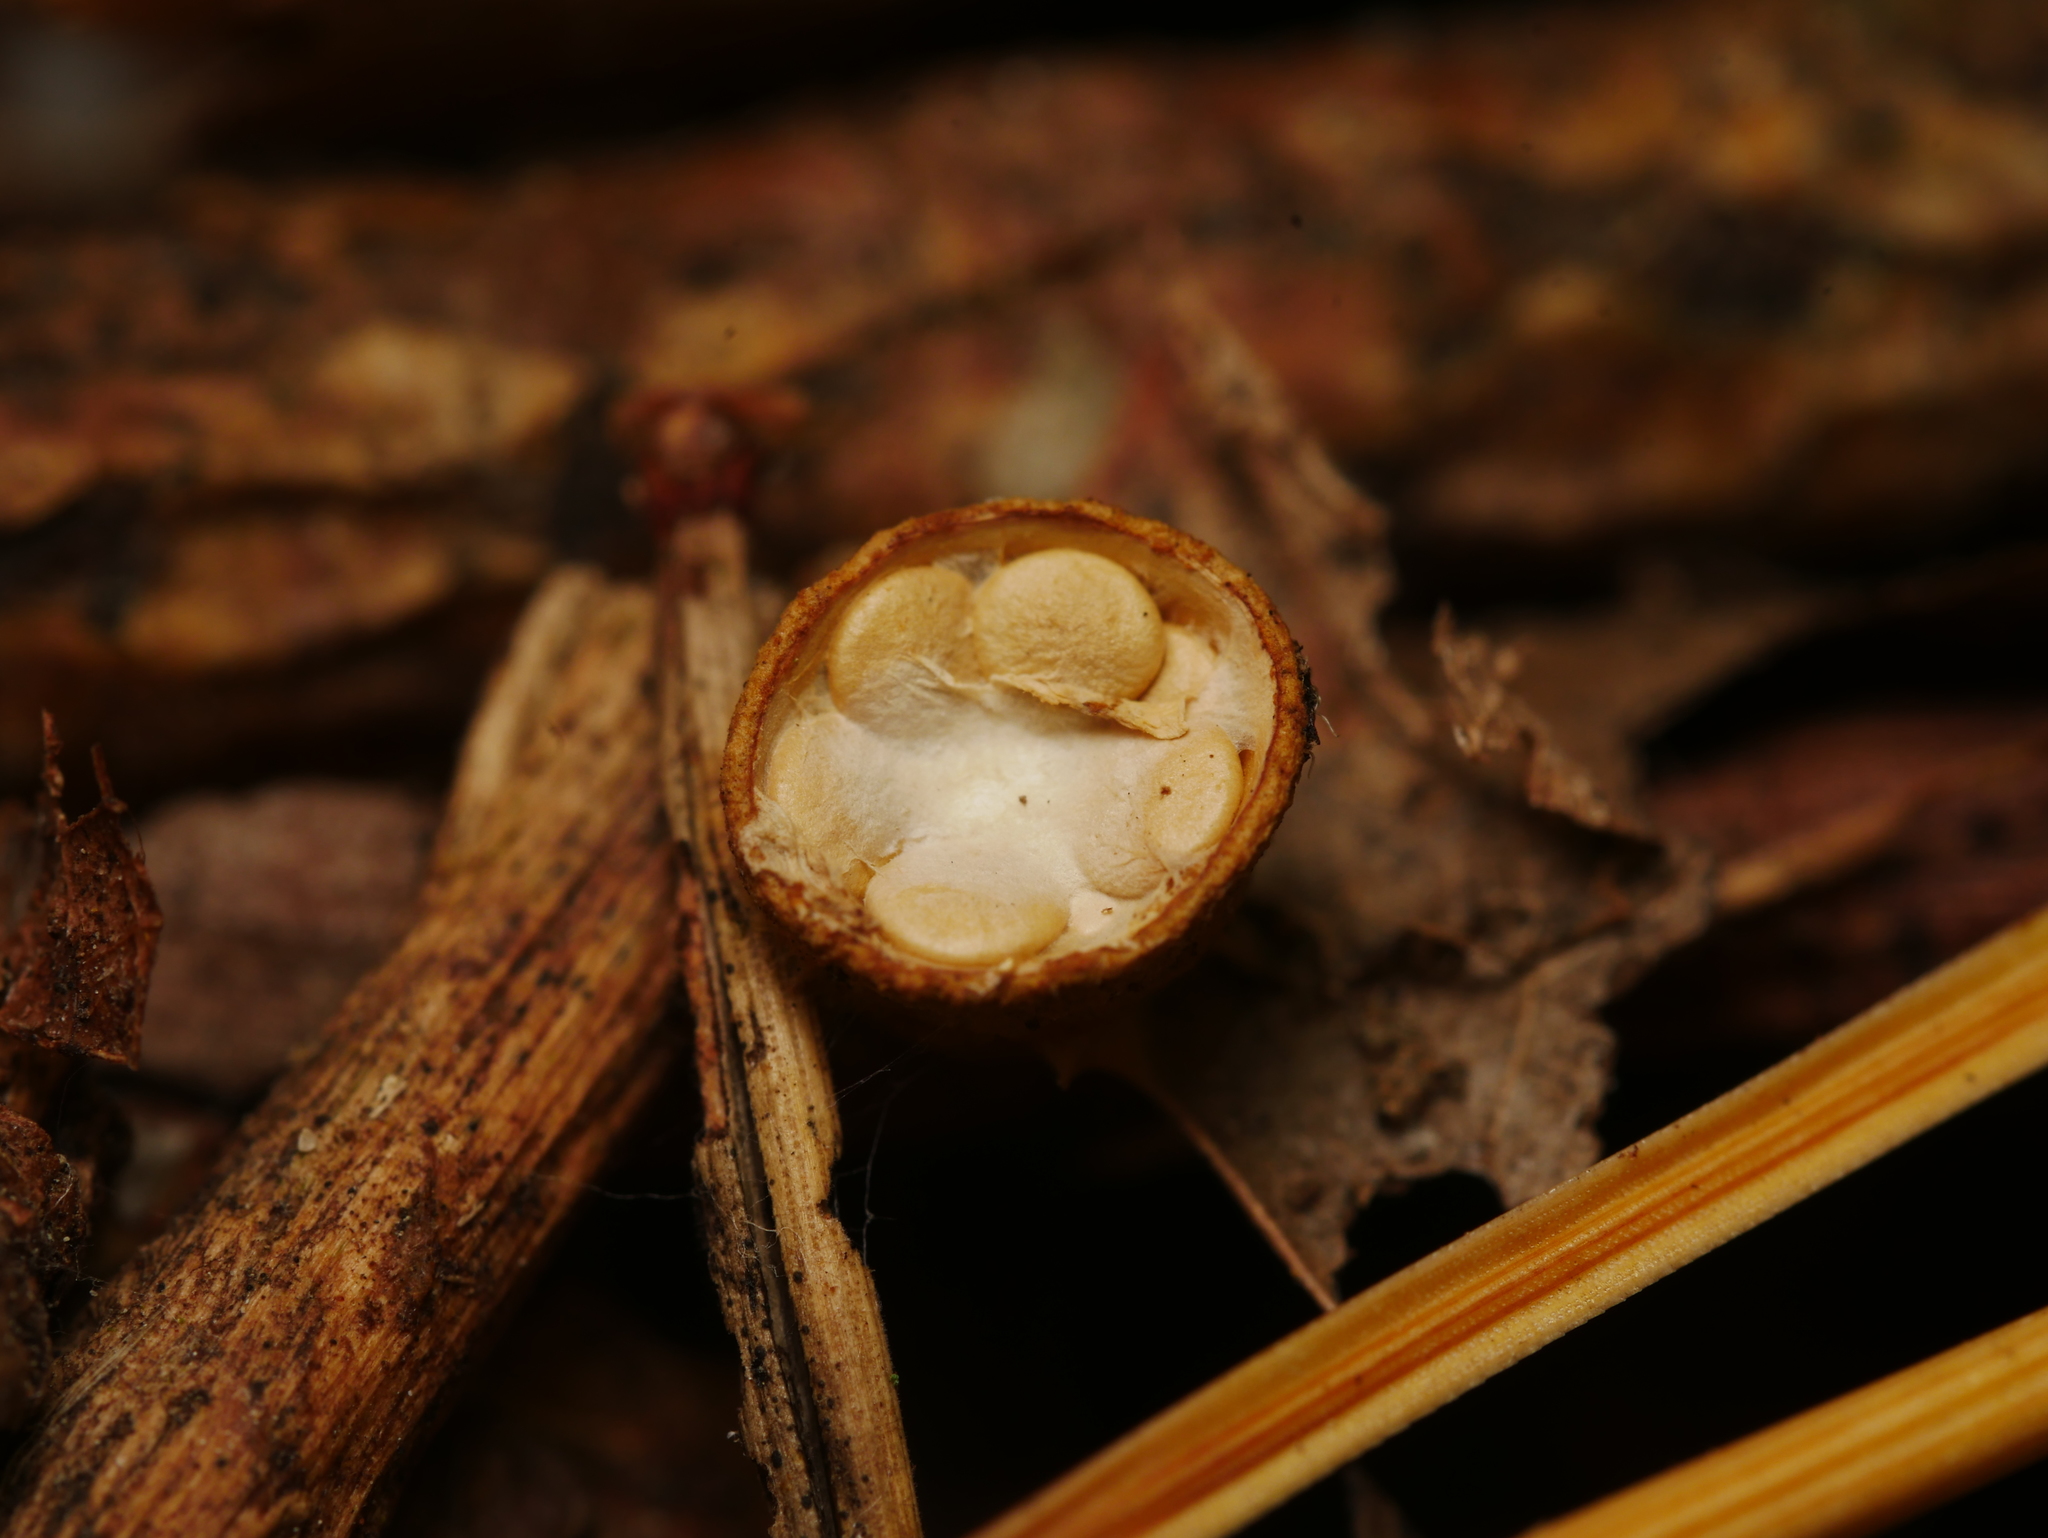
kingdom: Fungi
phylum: Basidiomycota
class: Agaricomycetes
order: Agaricales
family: Nidulariaceae
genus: Crucibulum
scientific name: Crucibulum laeve
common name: Common bird's nest
